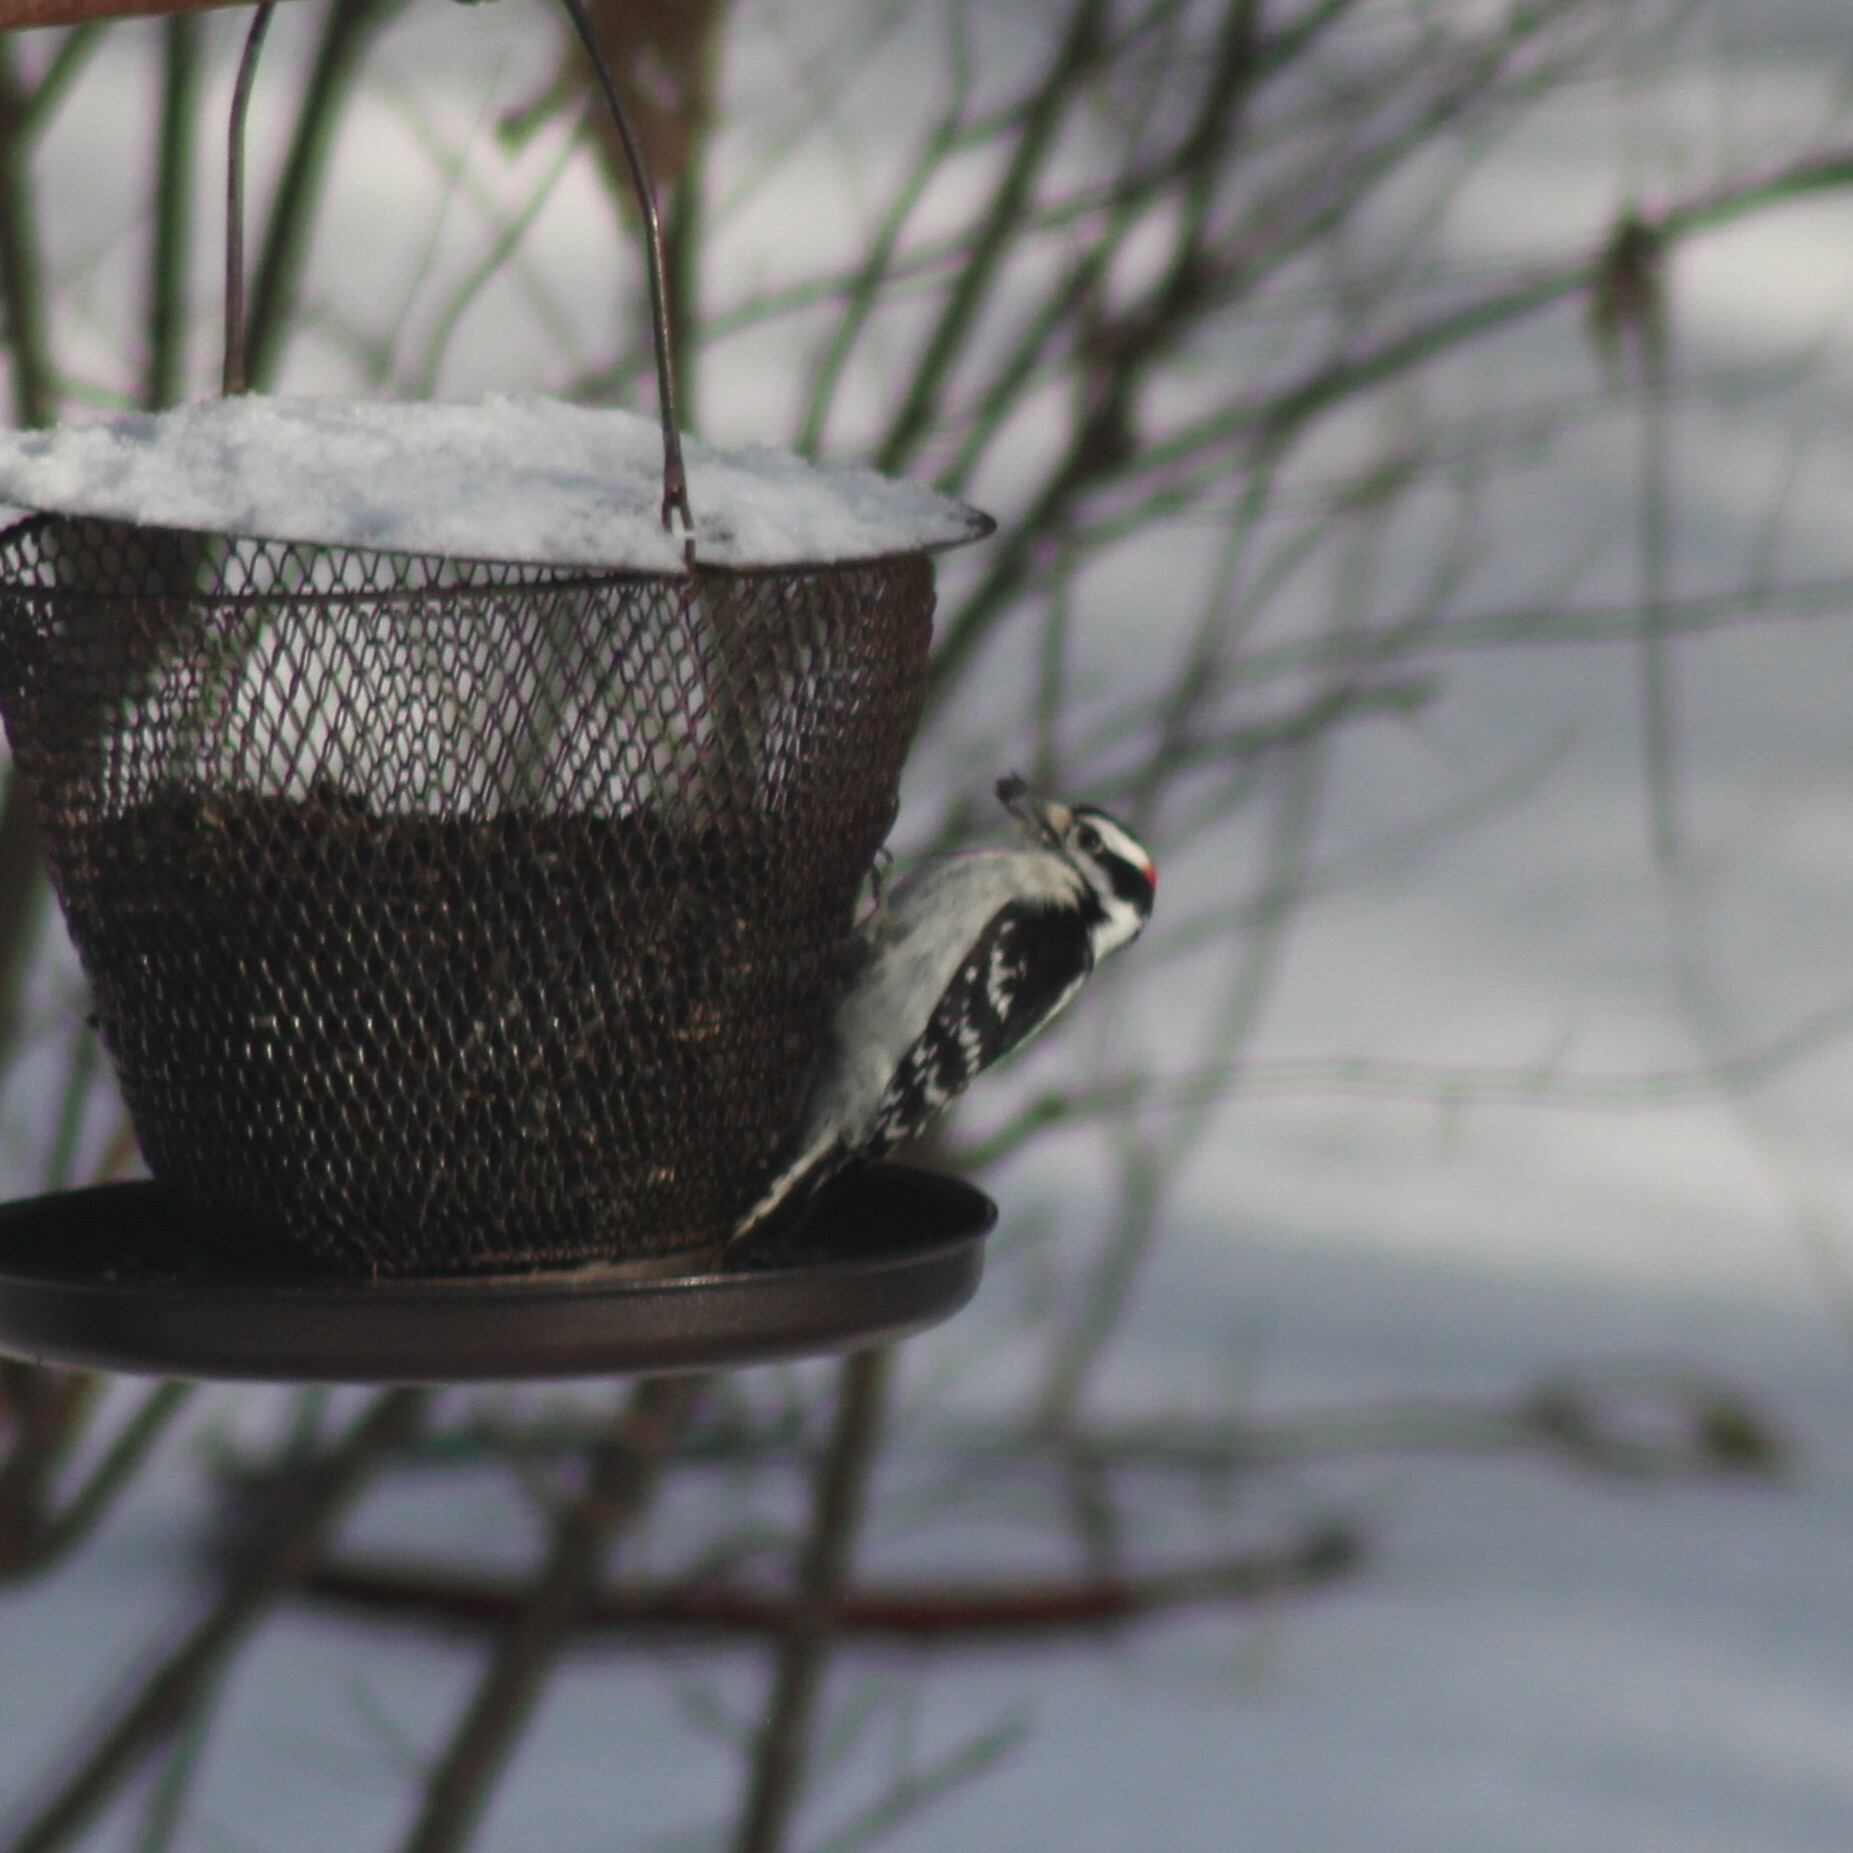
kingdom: Animalia
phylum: Chordata
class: Aves
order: Piciformes
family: Picidae
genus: Dryobates
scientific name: Dryobates pubescens
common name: Downy woodpecker
